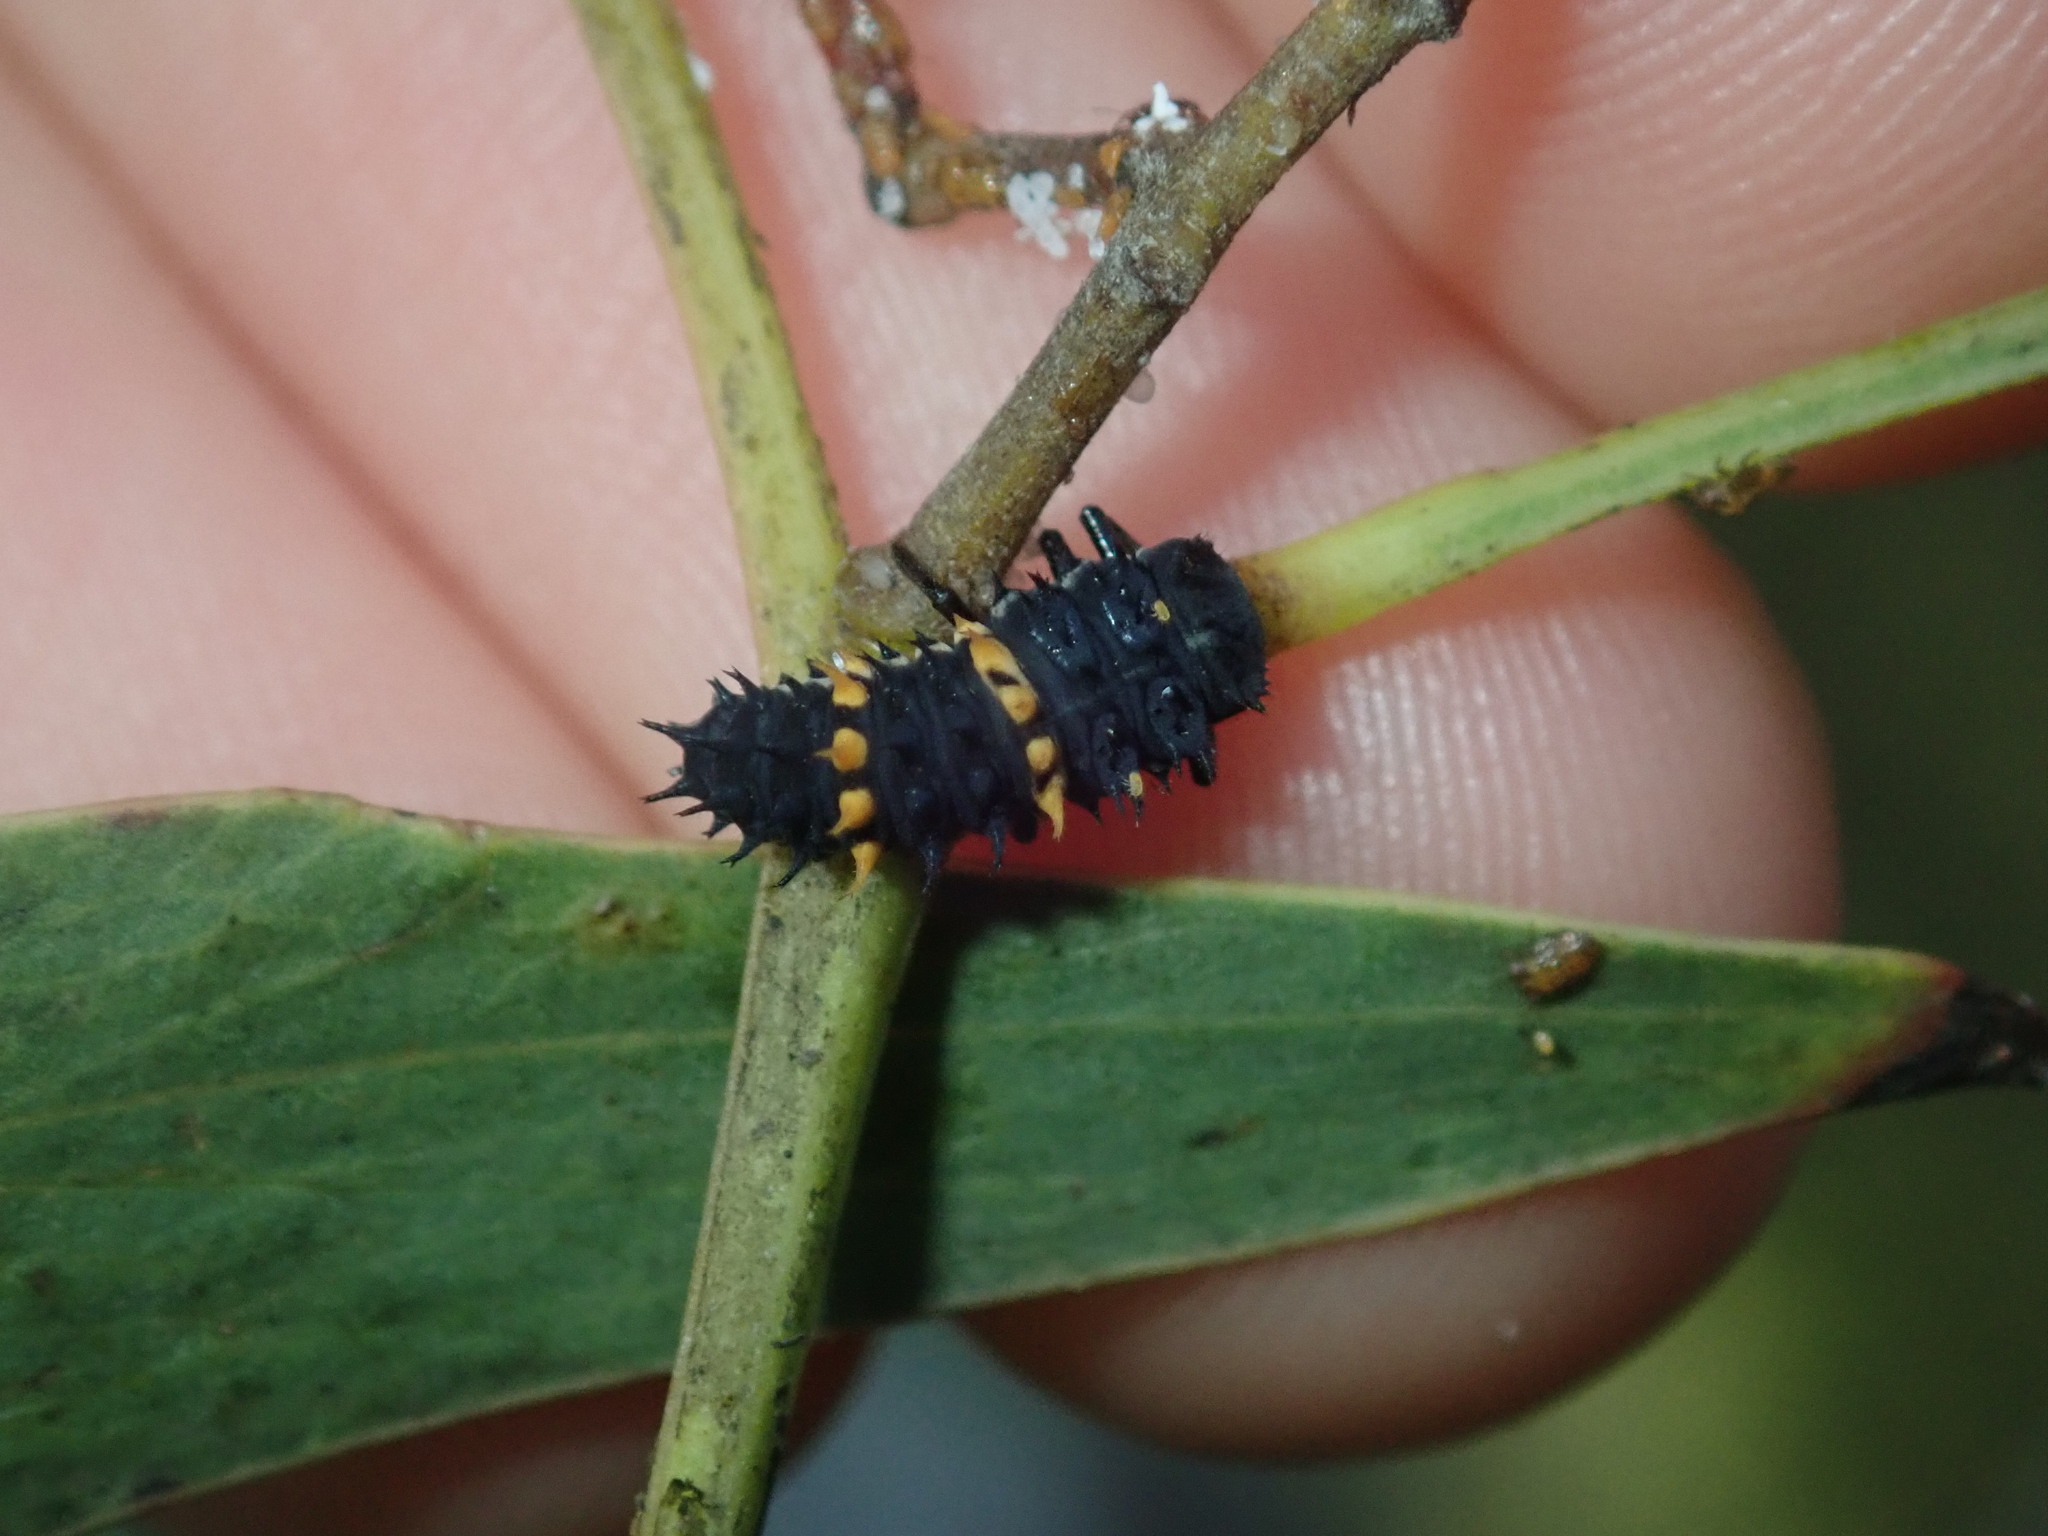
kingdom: Animalia
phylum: Arthropoda
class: Insecta
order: Coleoptera
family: Coccinellidae
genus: Harmonia
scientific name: Harmonia conformis
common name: Common spotted ladybird beetle
